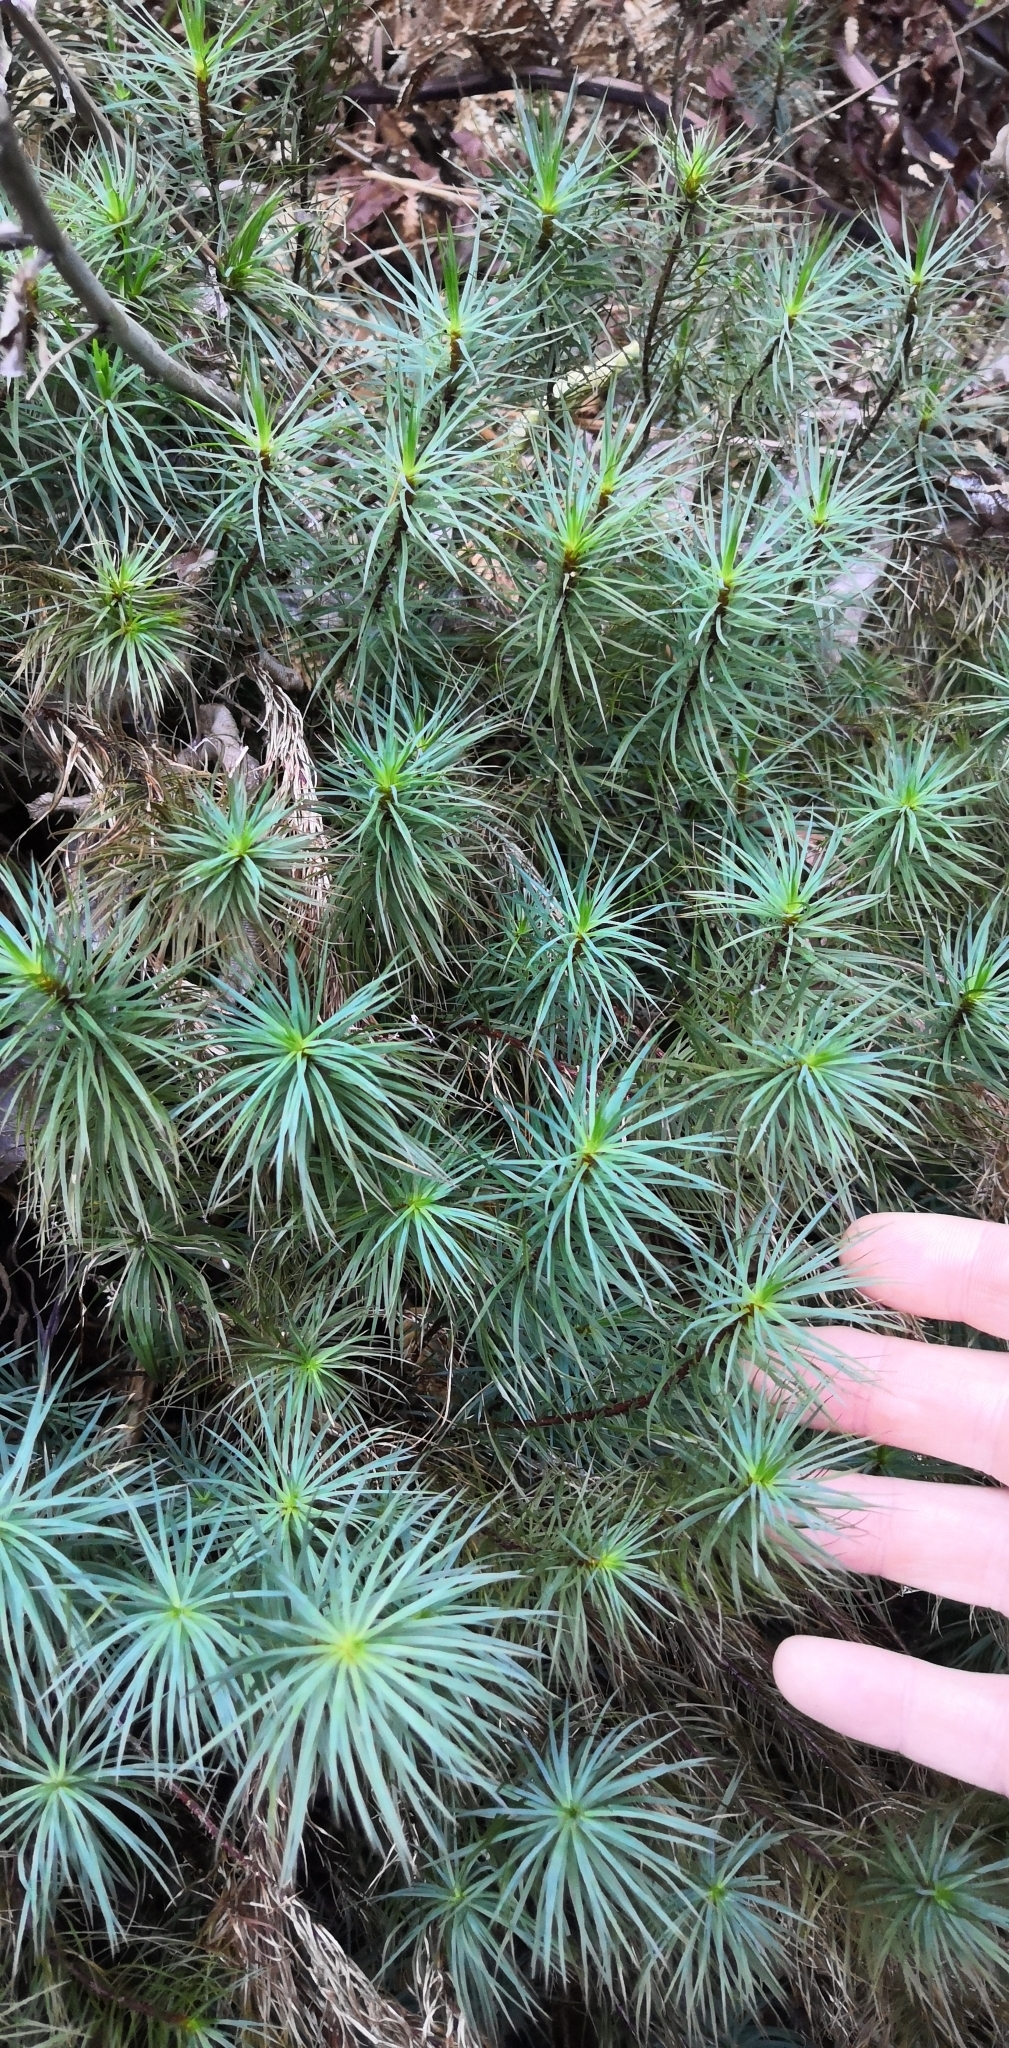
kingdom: Plantae
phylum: Bryophyta
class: Polytrichopsida
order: Polytrichales
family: Polytrichaceae
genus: Dawsonia
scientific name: Dawsonia superba
